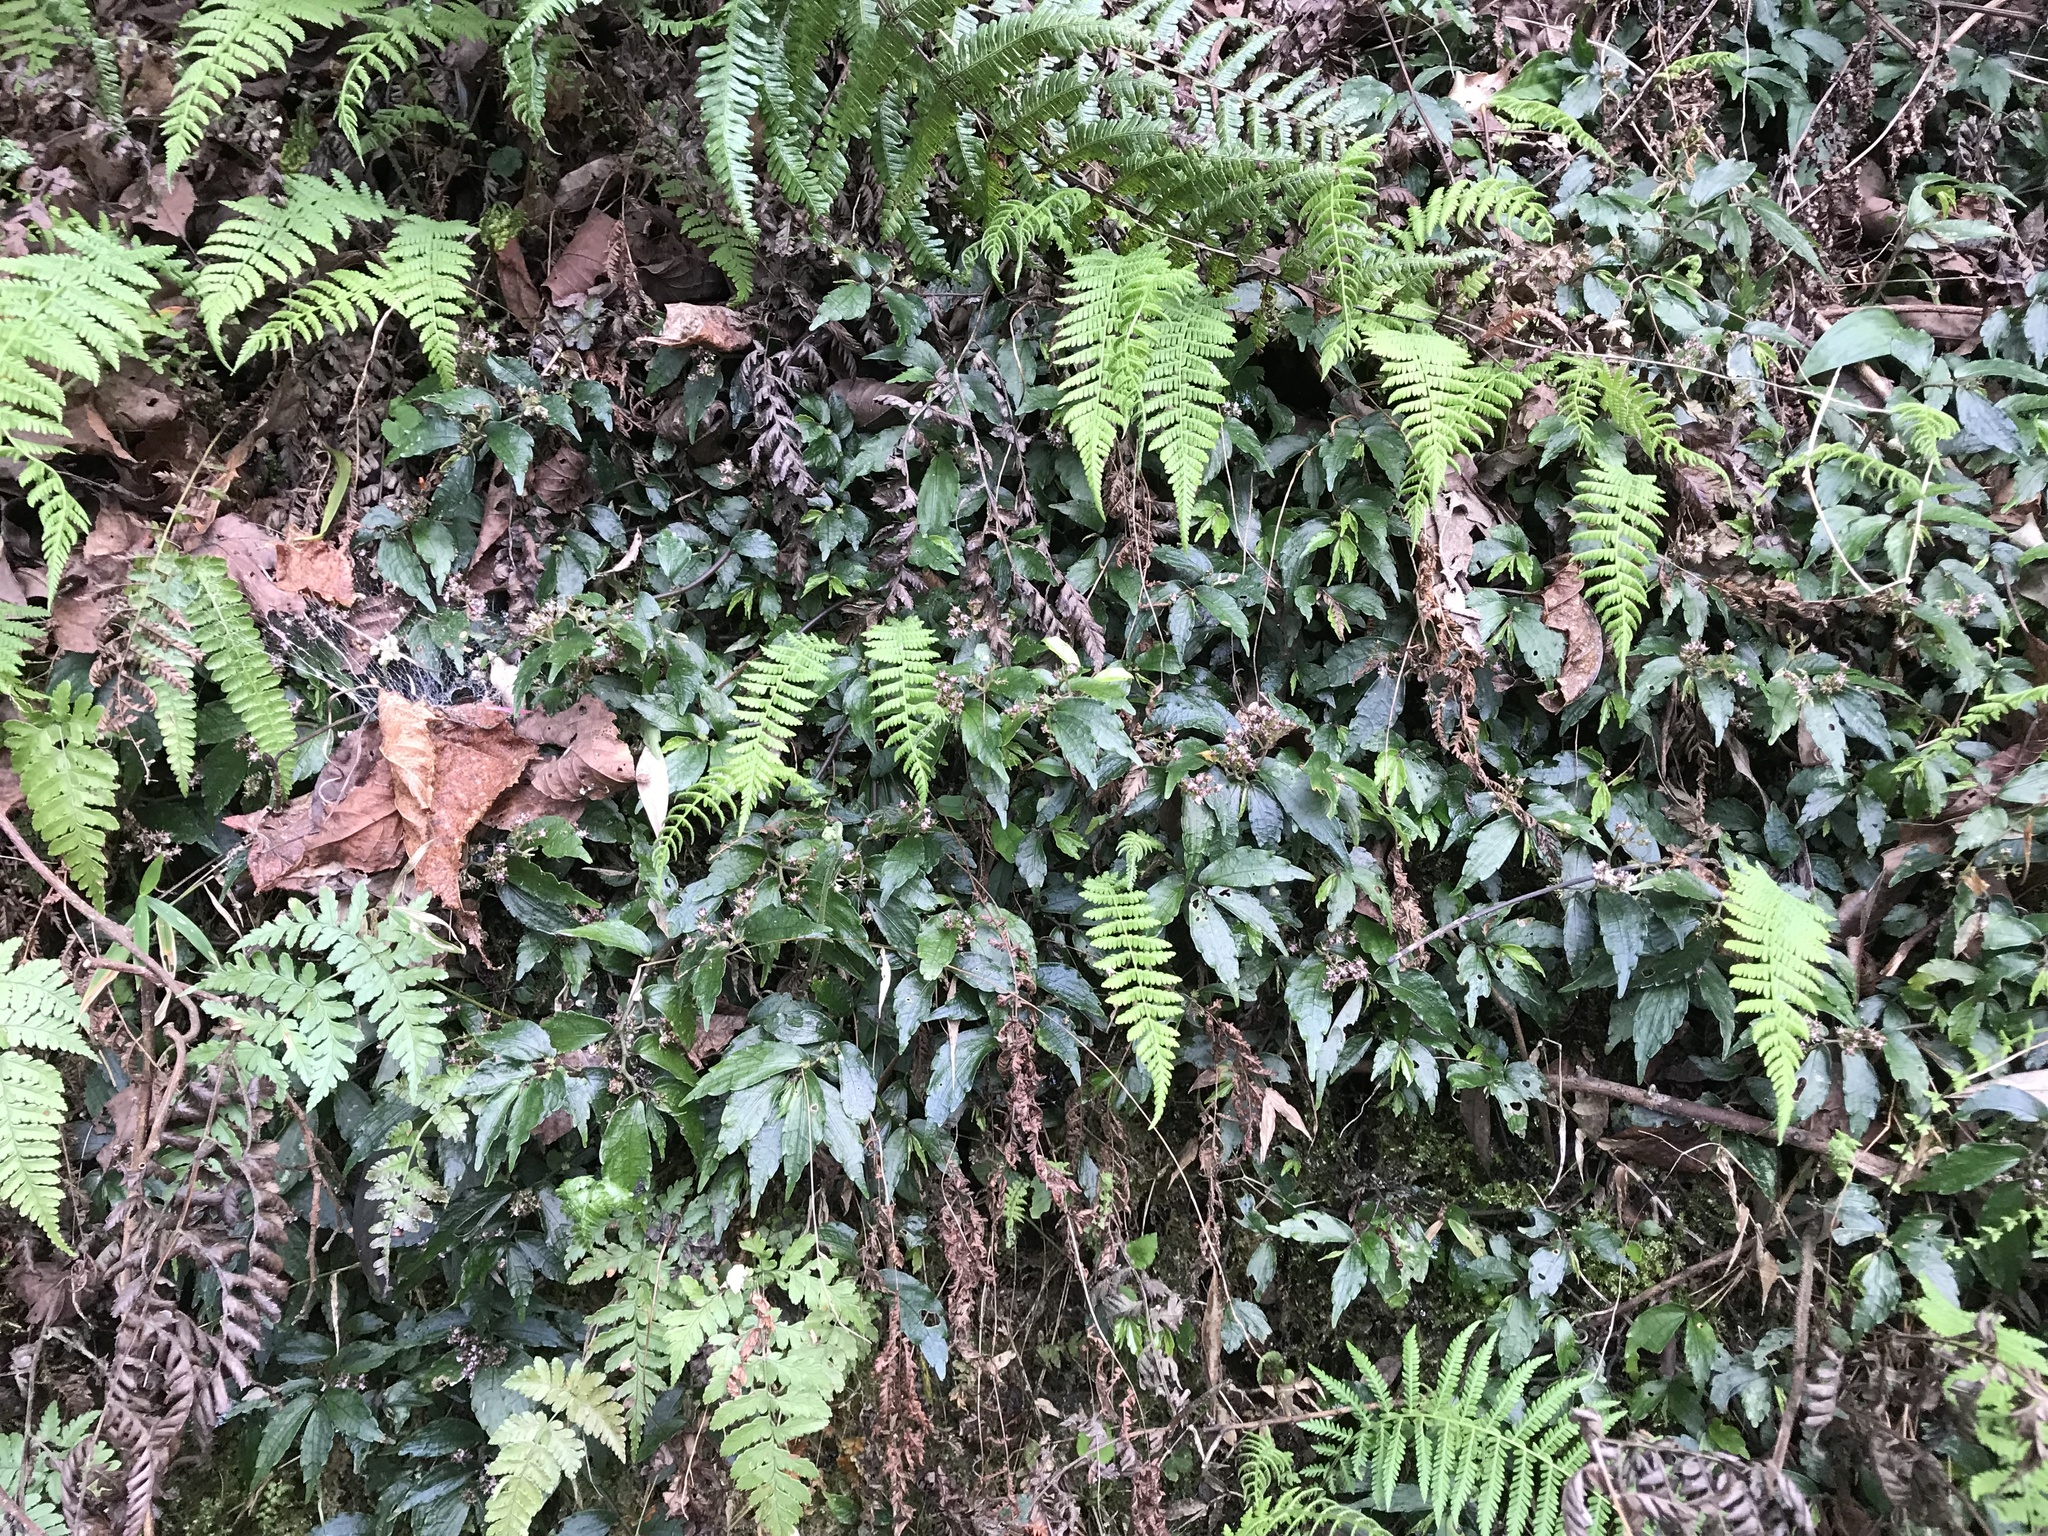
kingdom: Plantae
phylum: Tracheophyta
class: Magnoliopsida
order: Rosales
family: Urticaceae
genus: Elatostema
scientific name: Elatostema radicans
